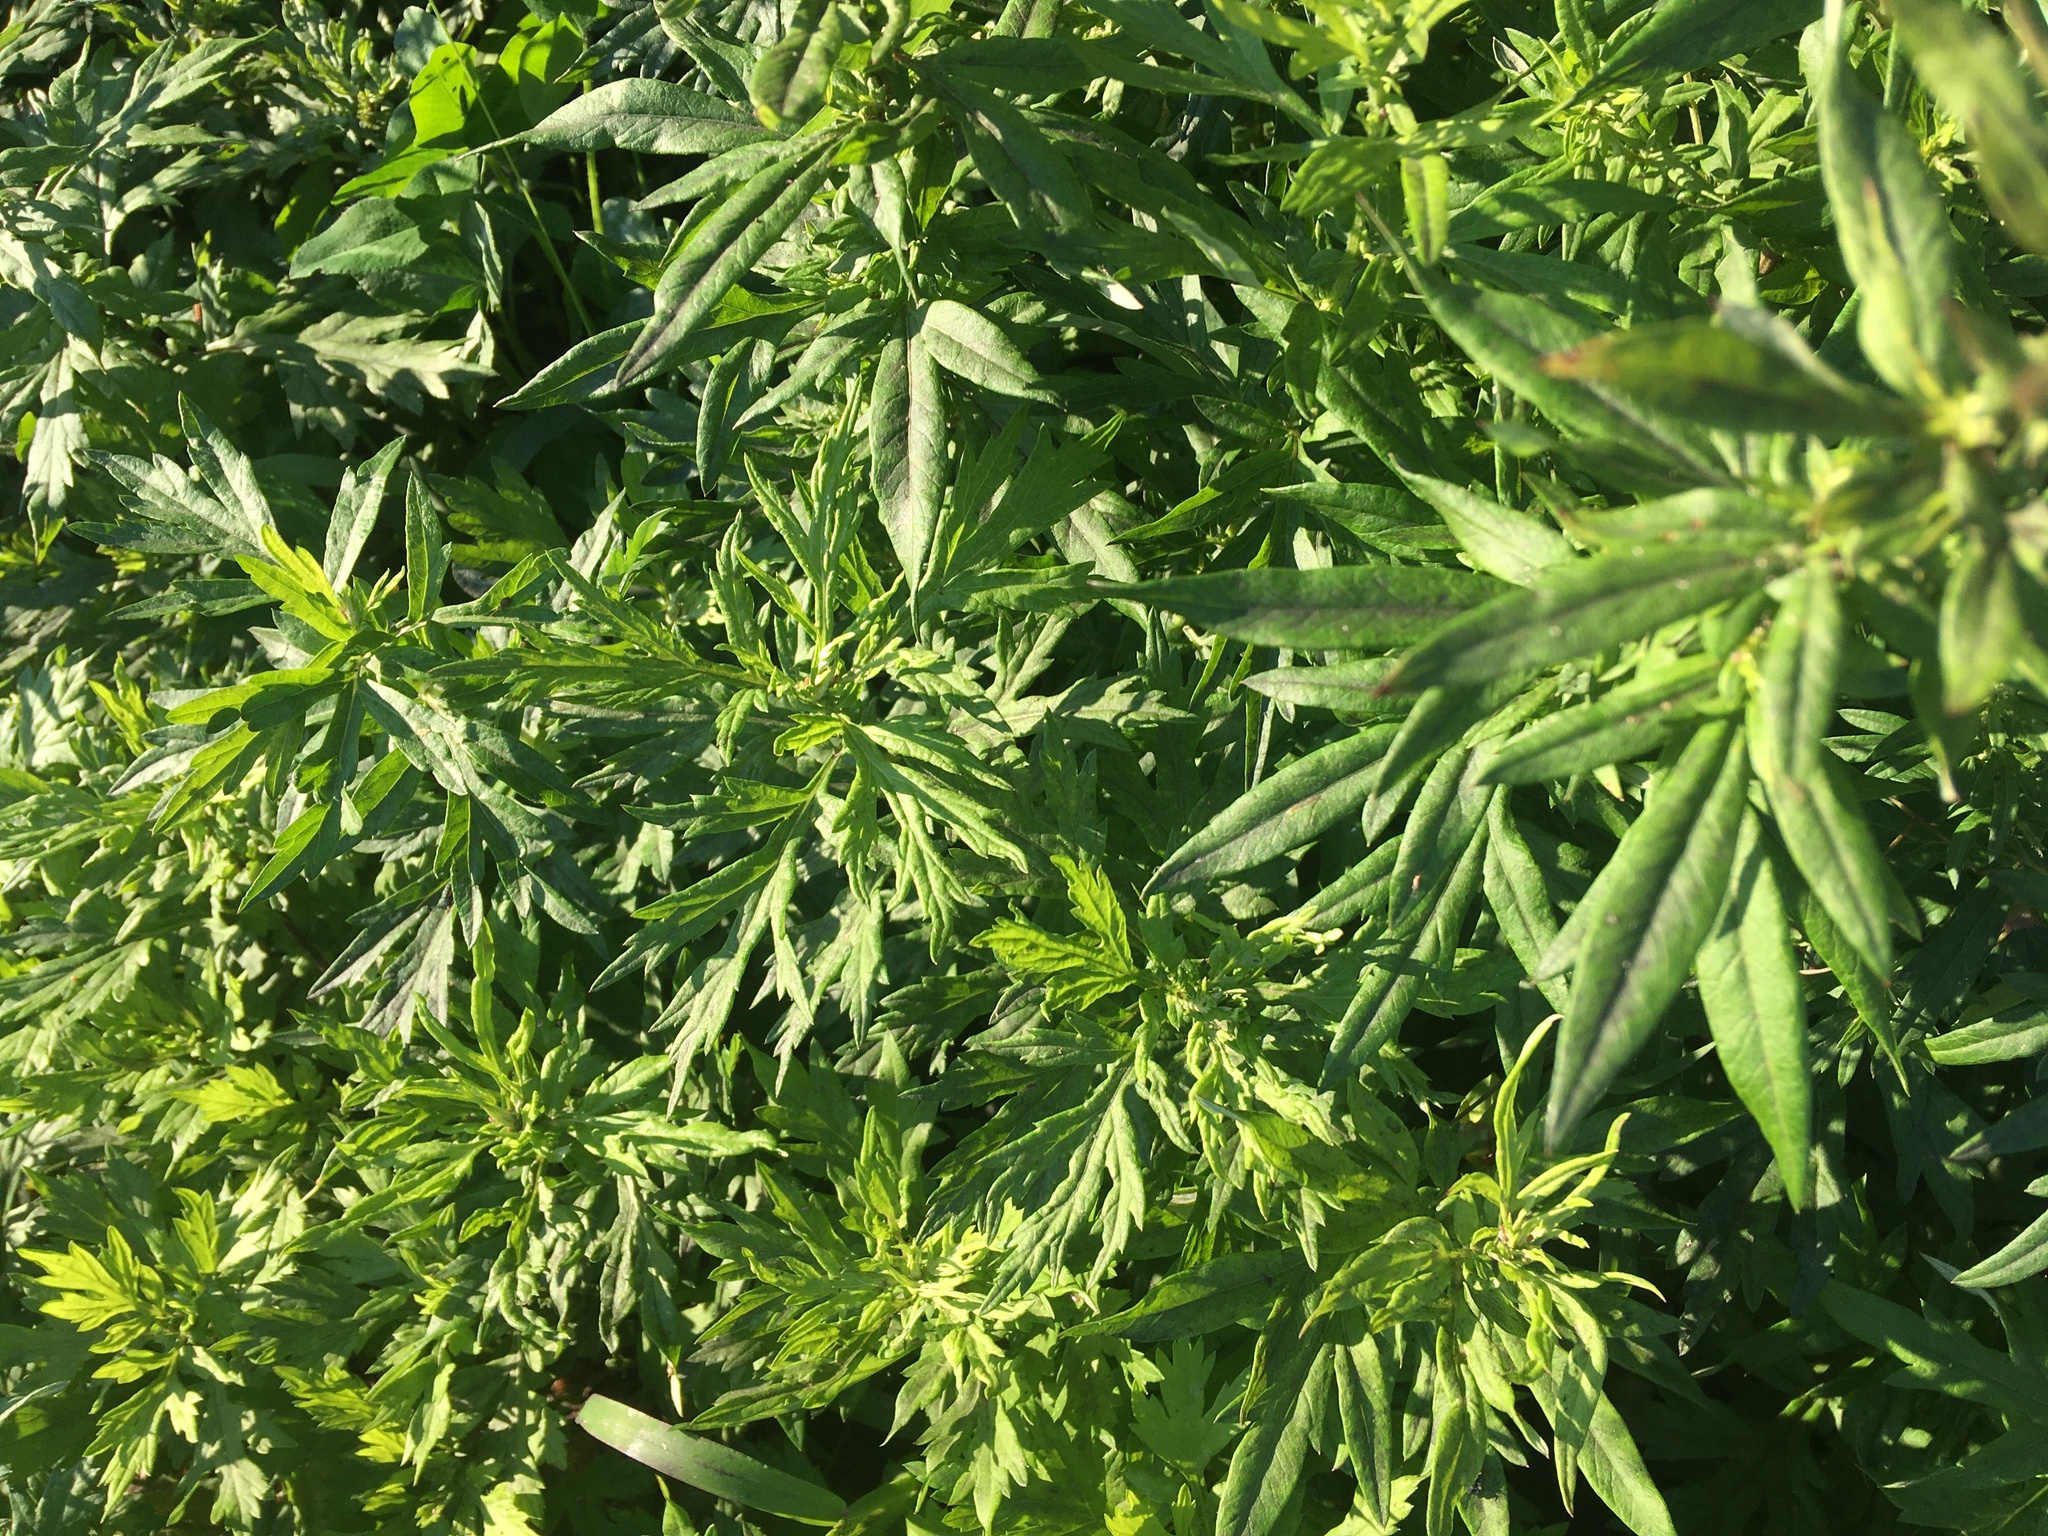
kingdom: Plantae
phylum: Tracheophyta
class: Magnoliopsida
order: Asterales
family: Asteraceae
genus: Artemisia
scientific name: Artemisia vulgaris
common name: Mugwort
